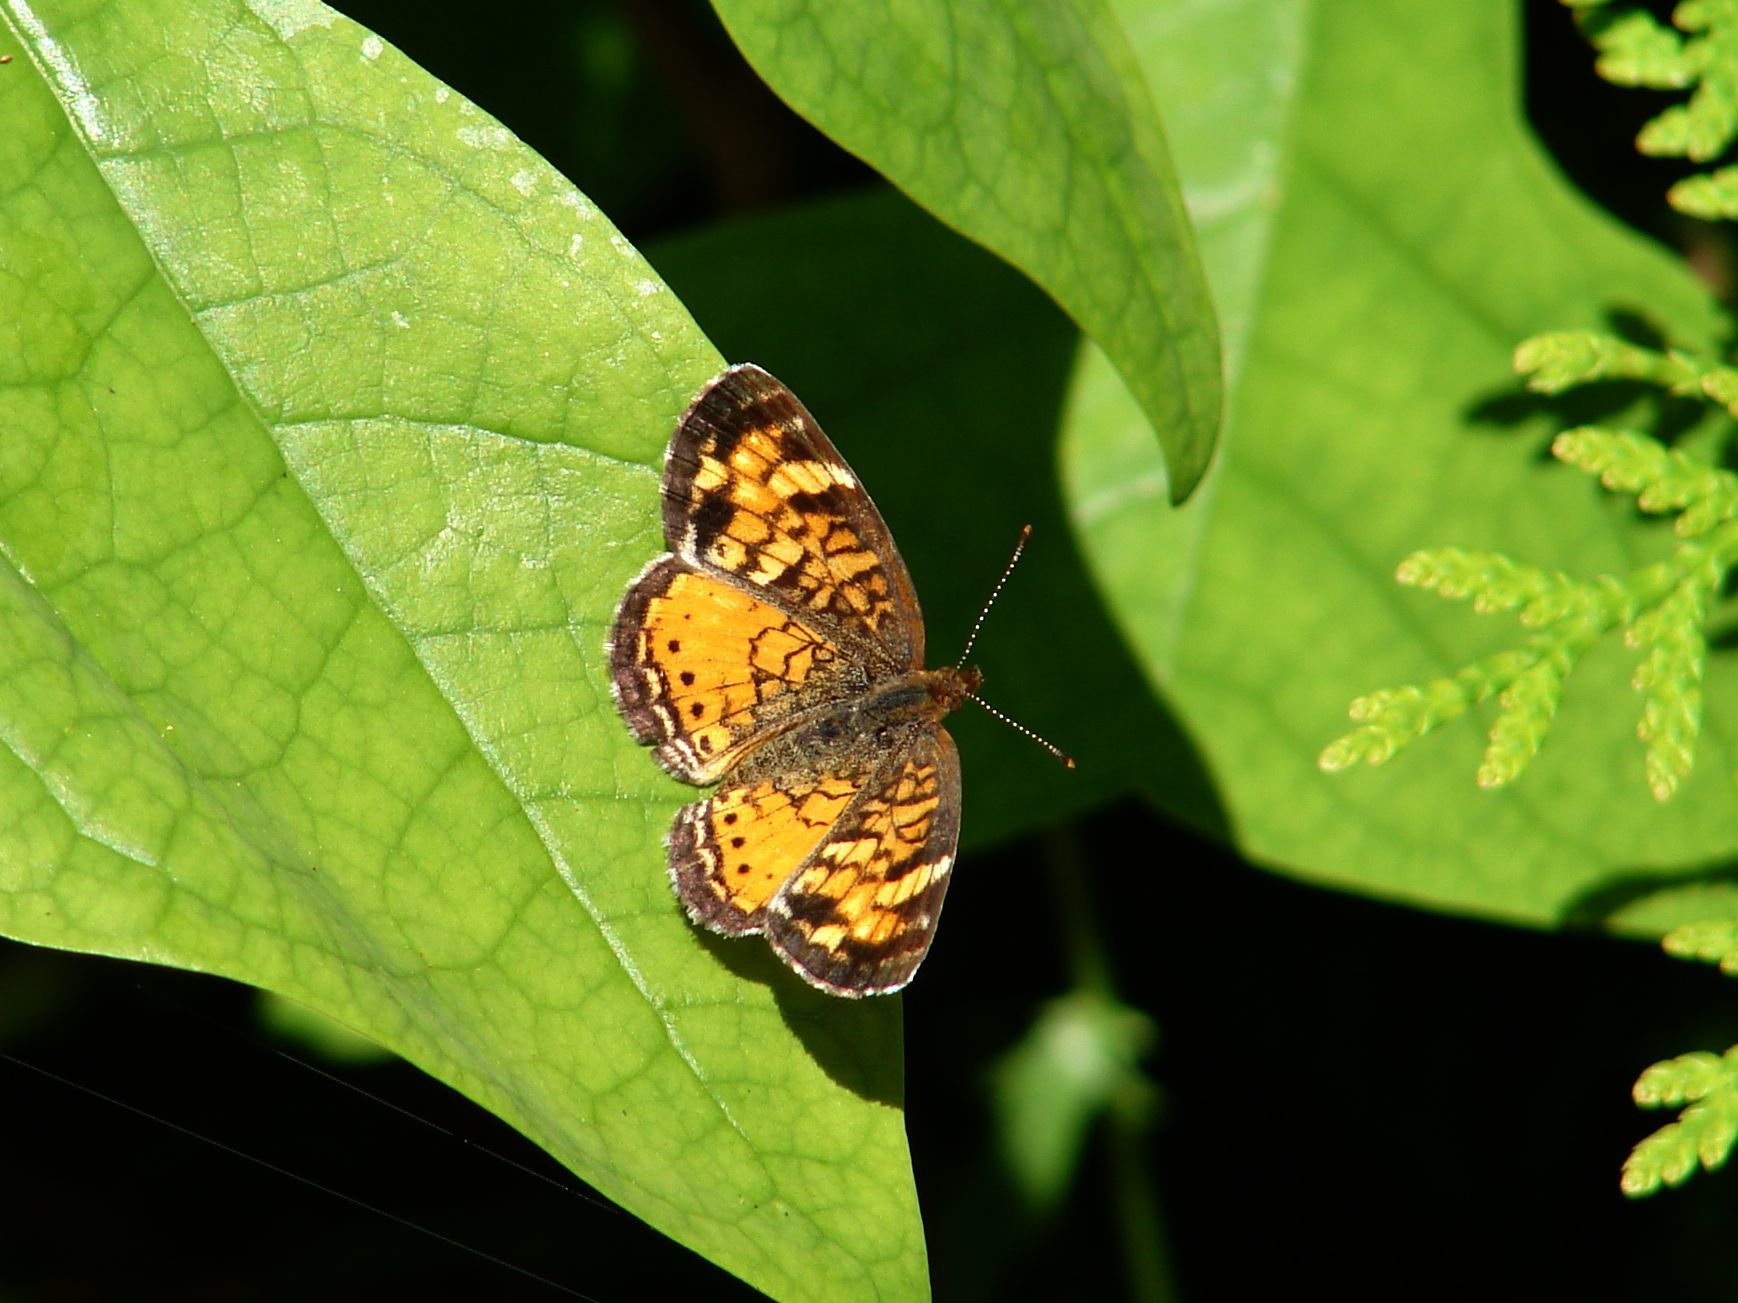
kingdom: Animalia
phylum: Arthropoda
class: Insecta
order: Lepidoptera
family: Nymphalidae
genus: Phyciodes
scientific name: Phyciodes tharos
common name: Pearl crescent
